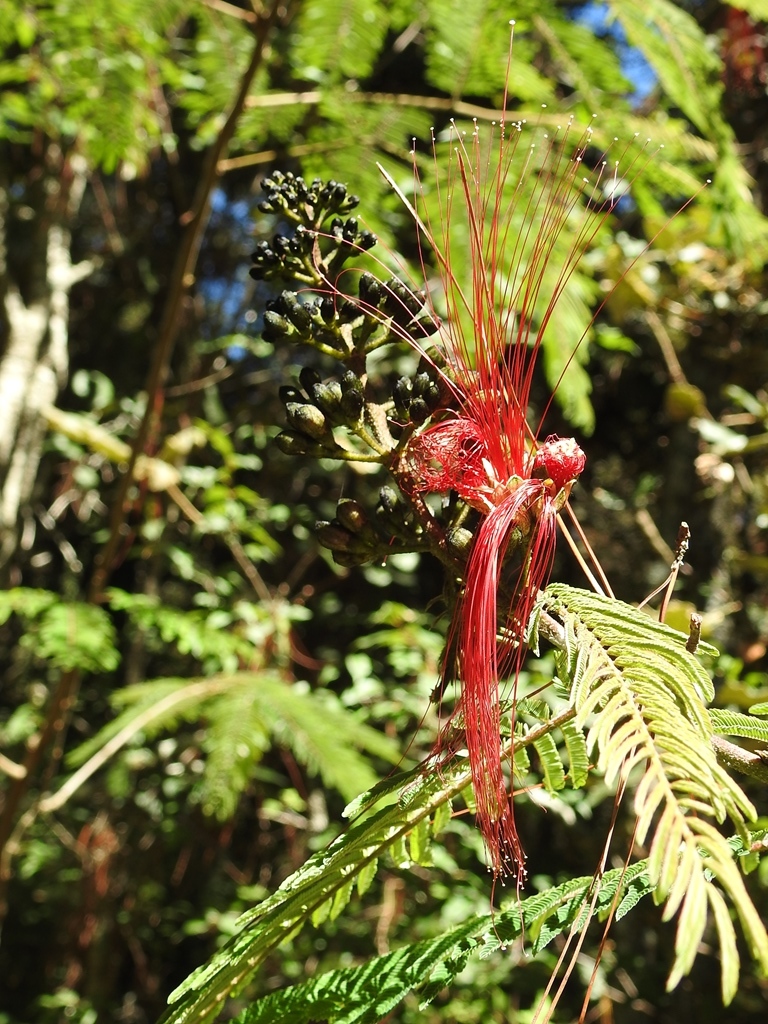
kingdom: Plantae
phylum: Tracheophyta
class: Magnoliopsida
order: Fabales
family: Fabaceae
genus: Calliandra
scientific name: Calliandra houstoniana
